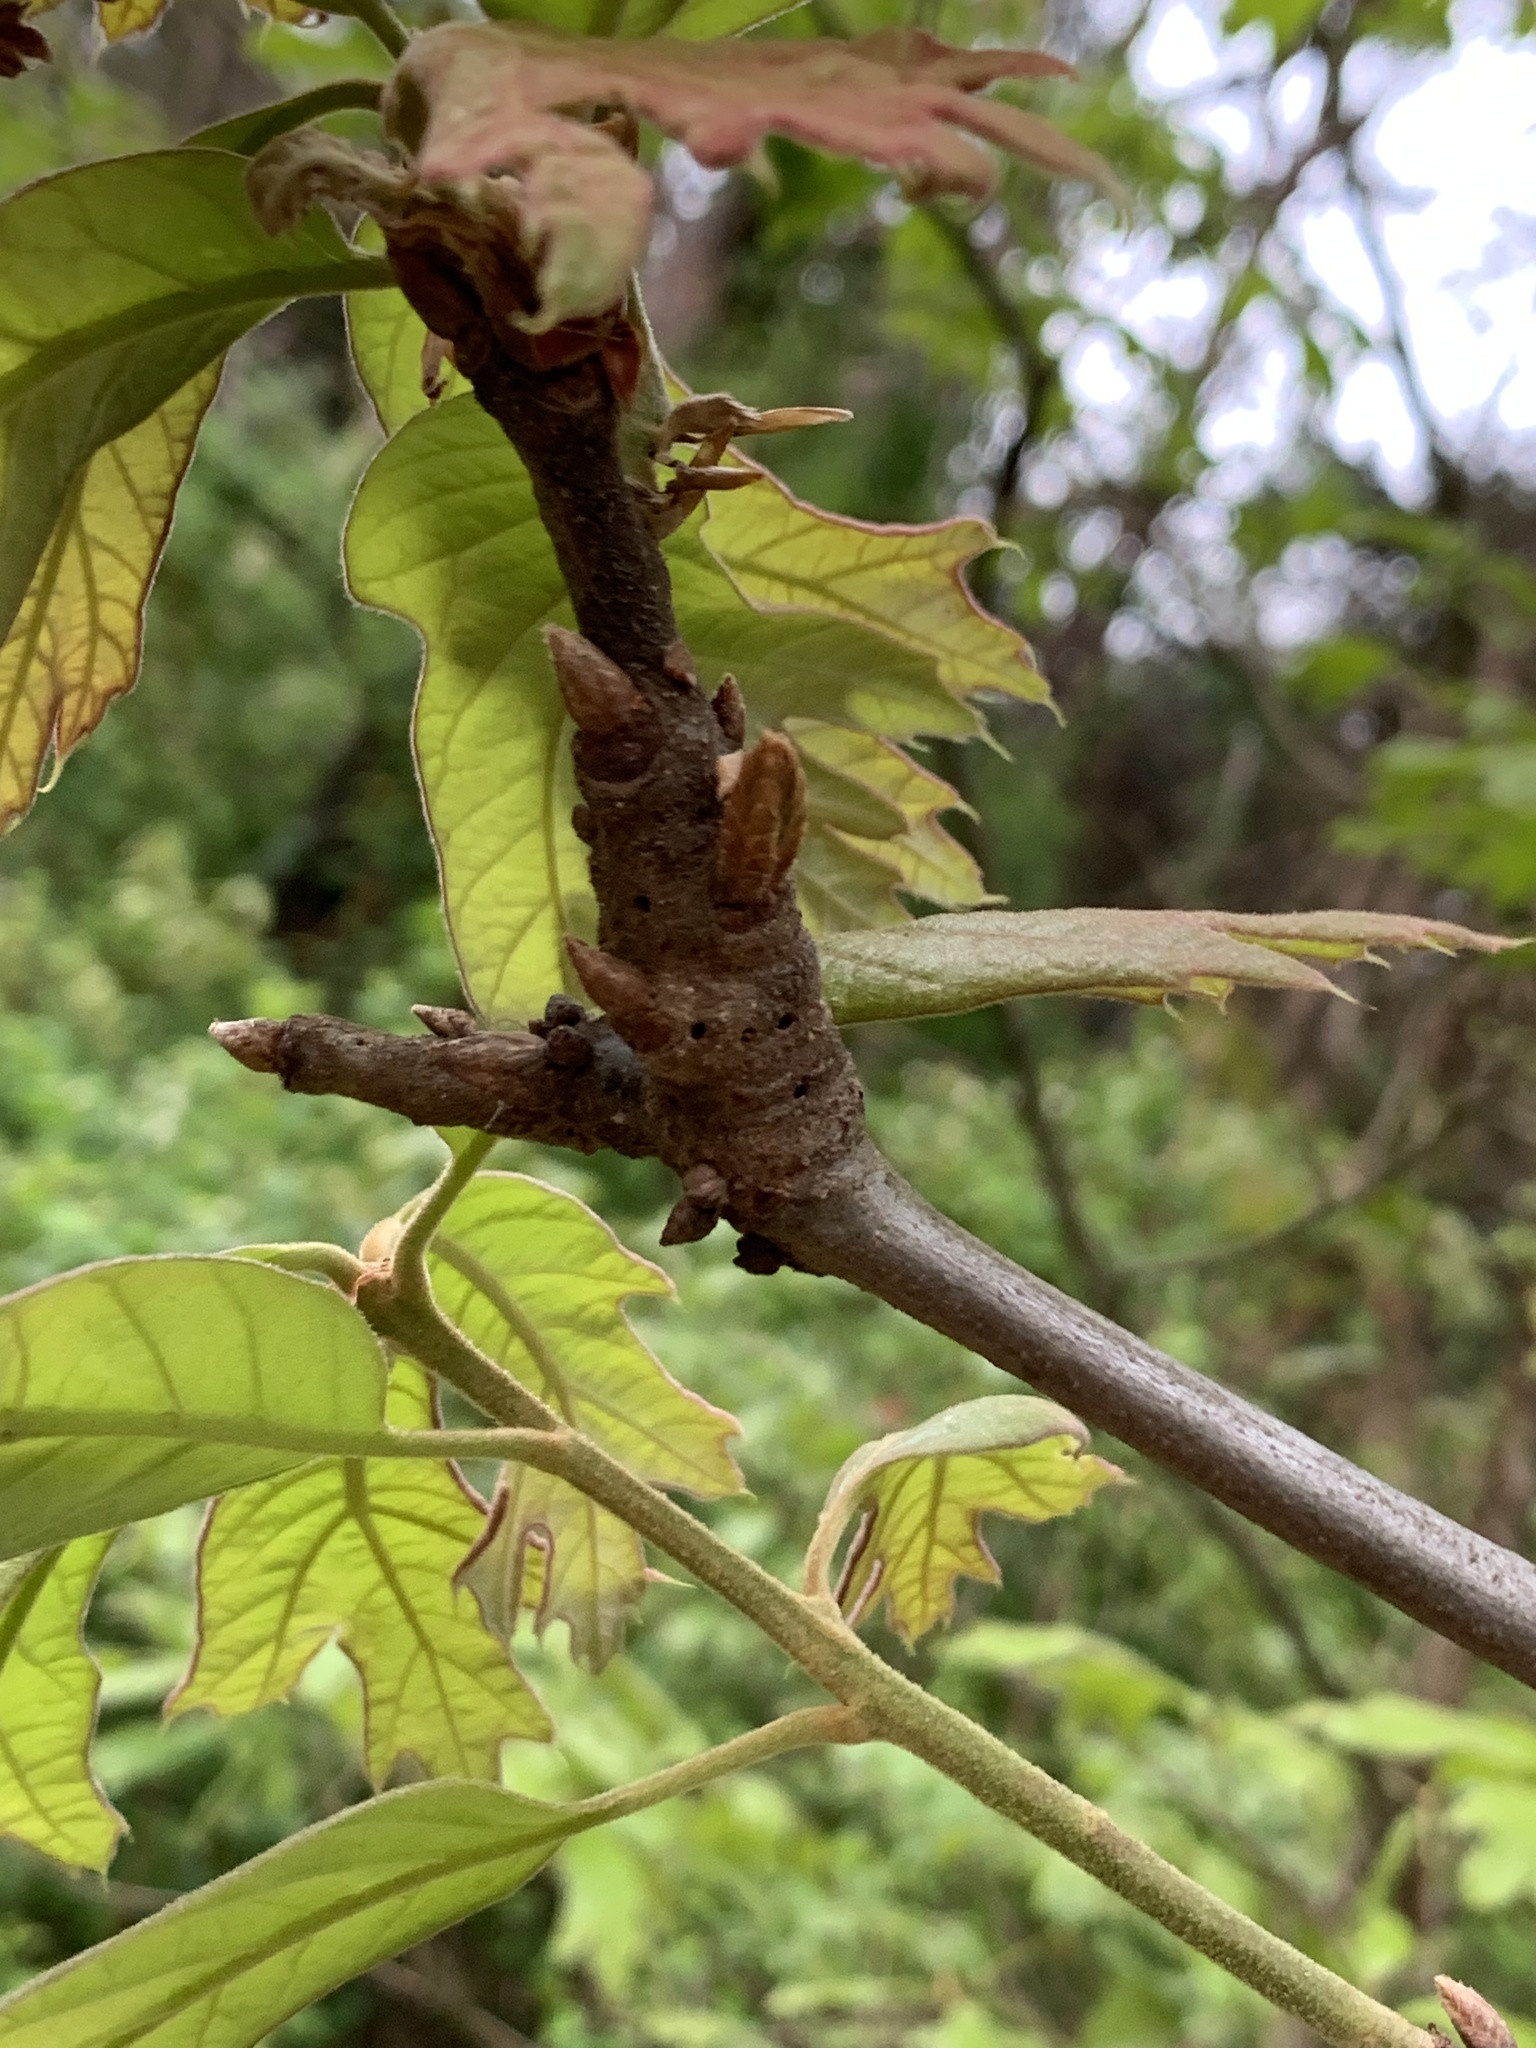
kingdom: Animalia
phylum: Arthropoda
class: Insecta
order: Hymenoptera
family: Cynipidae
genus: Callirhytis
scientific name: Callirhytis
